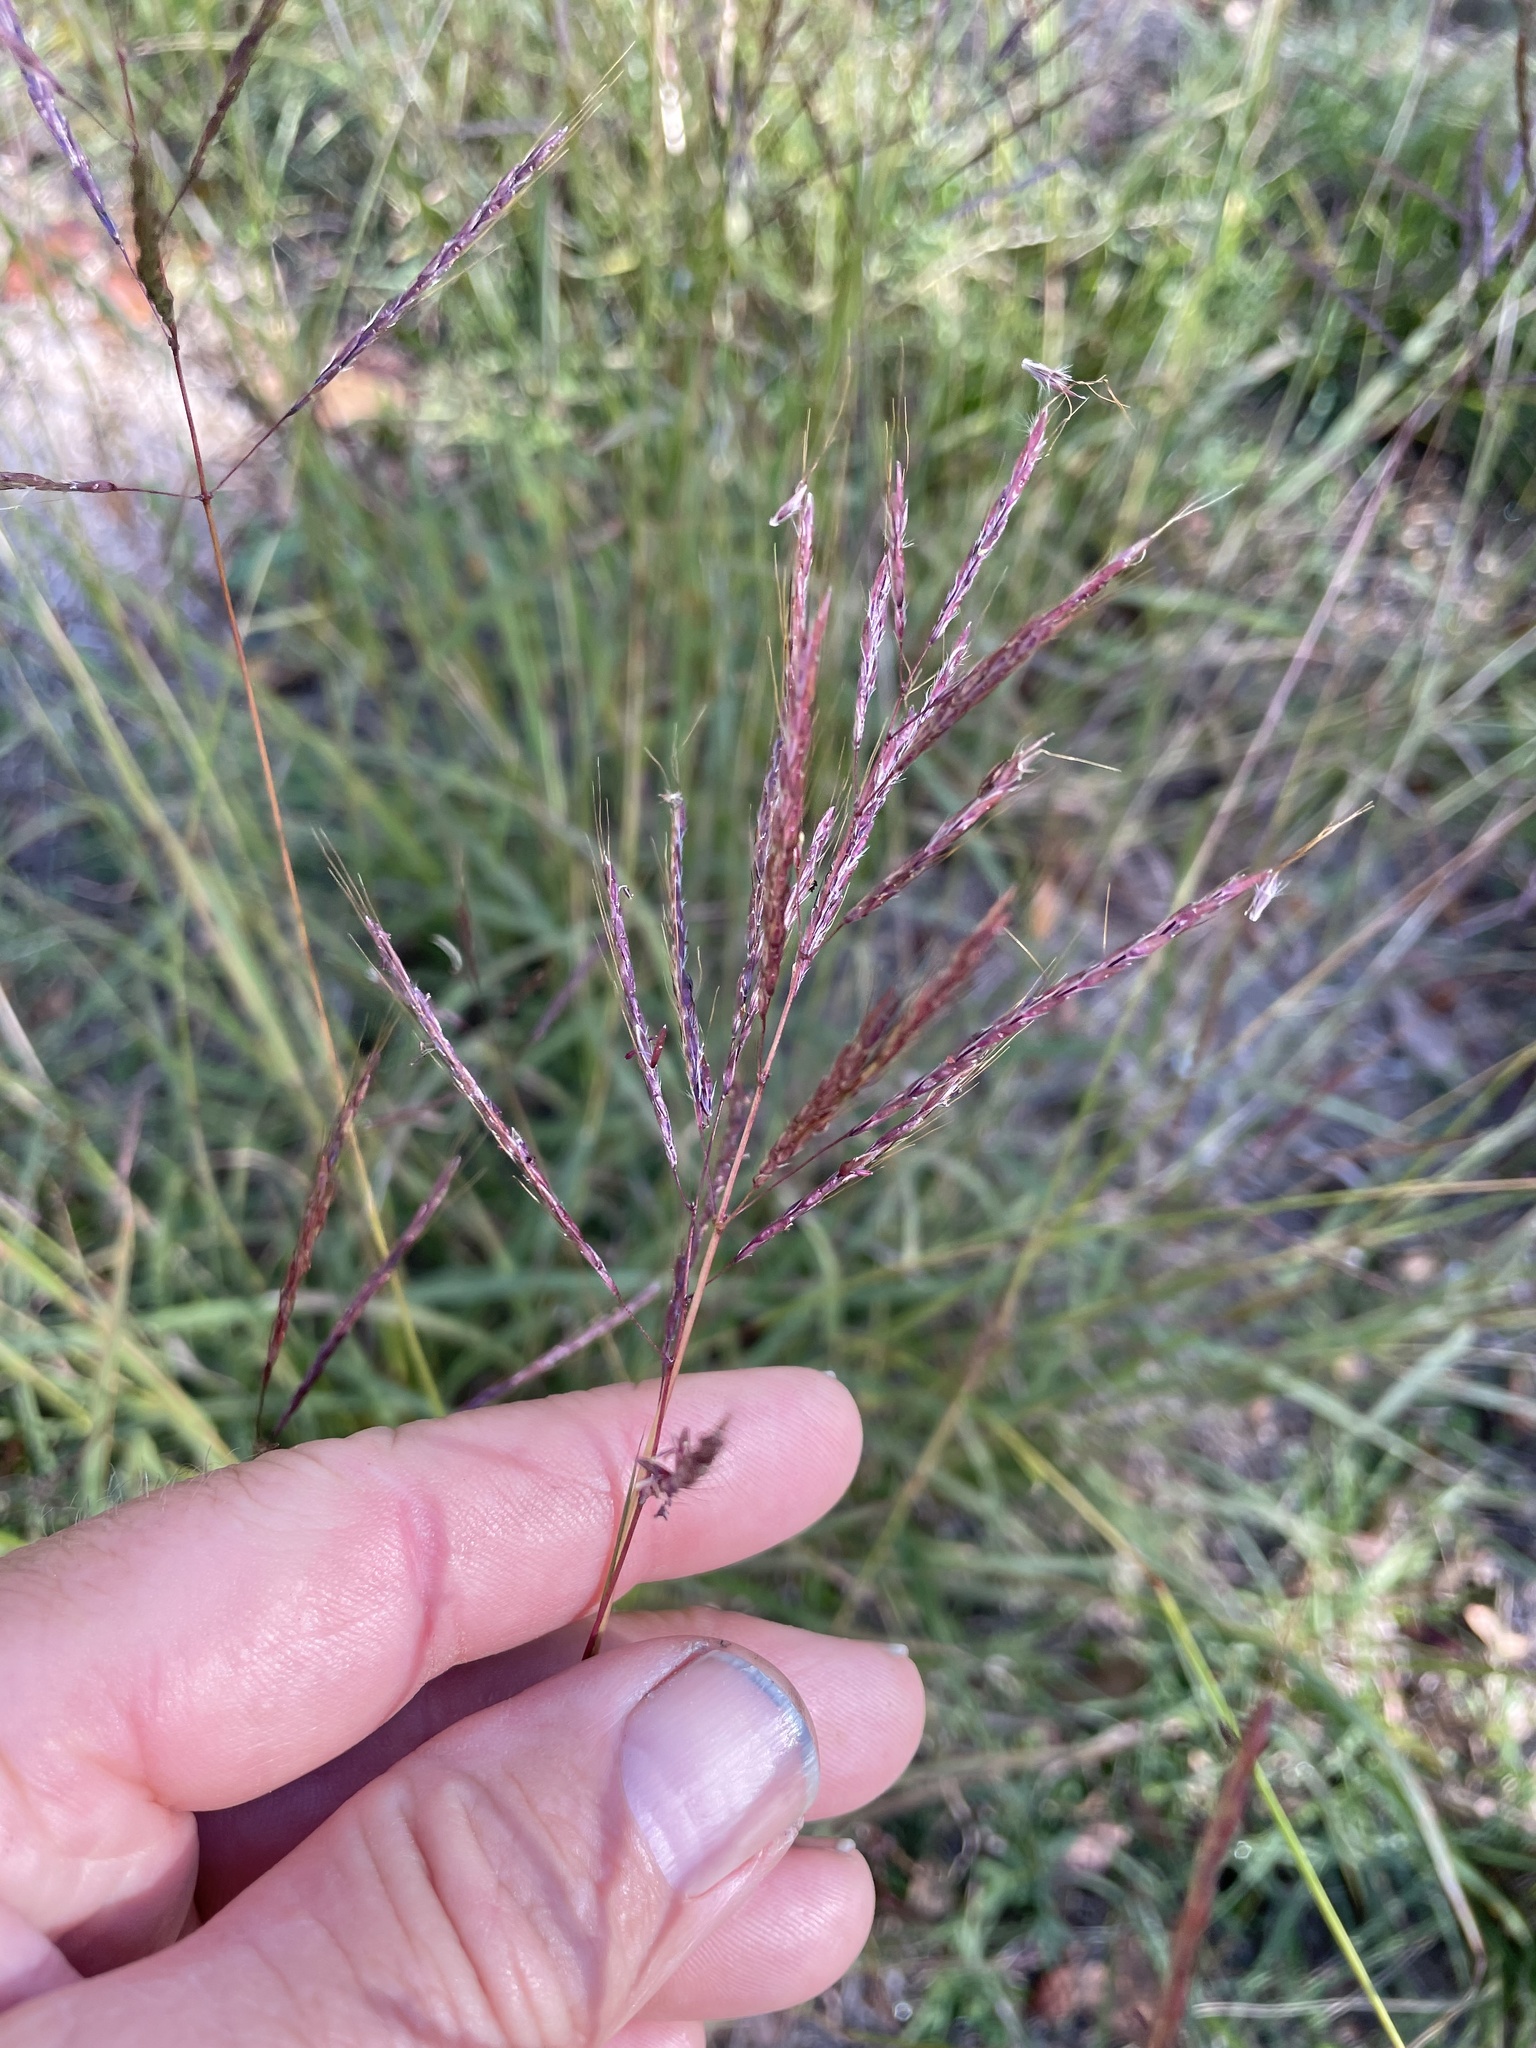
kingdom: Plantae
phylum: Tracheophyta
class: Liliopsida
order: Poales
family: Poaceae
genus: Bothriochloa
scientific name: Bothriochloa bladhii
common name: Caucasian bluestem
